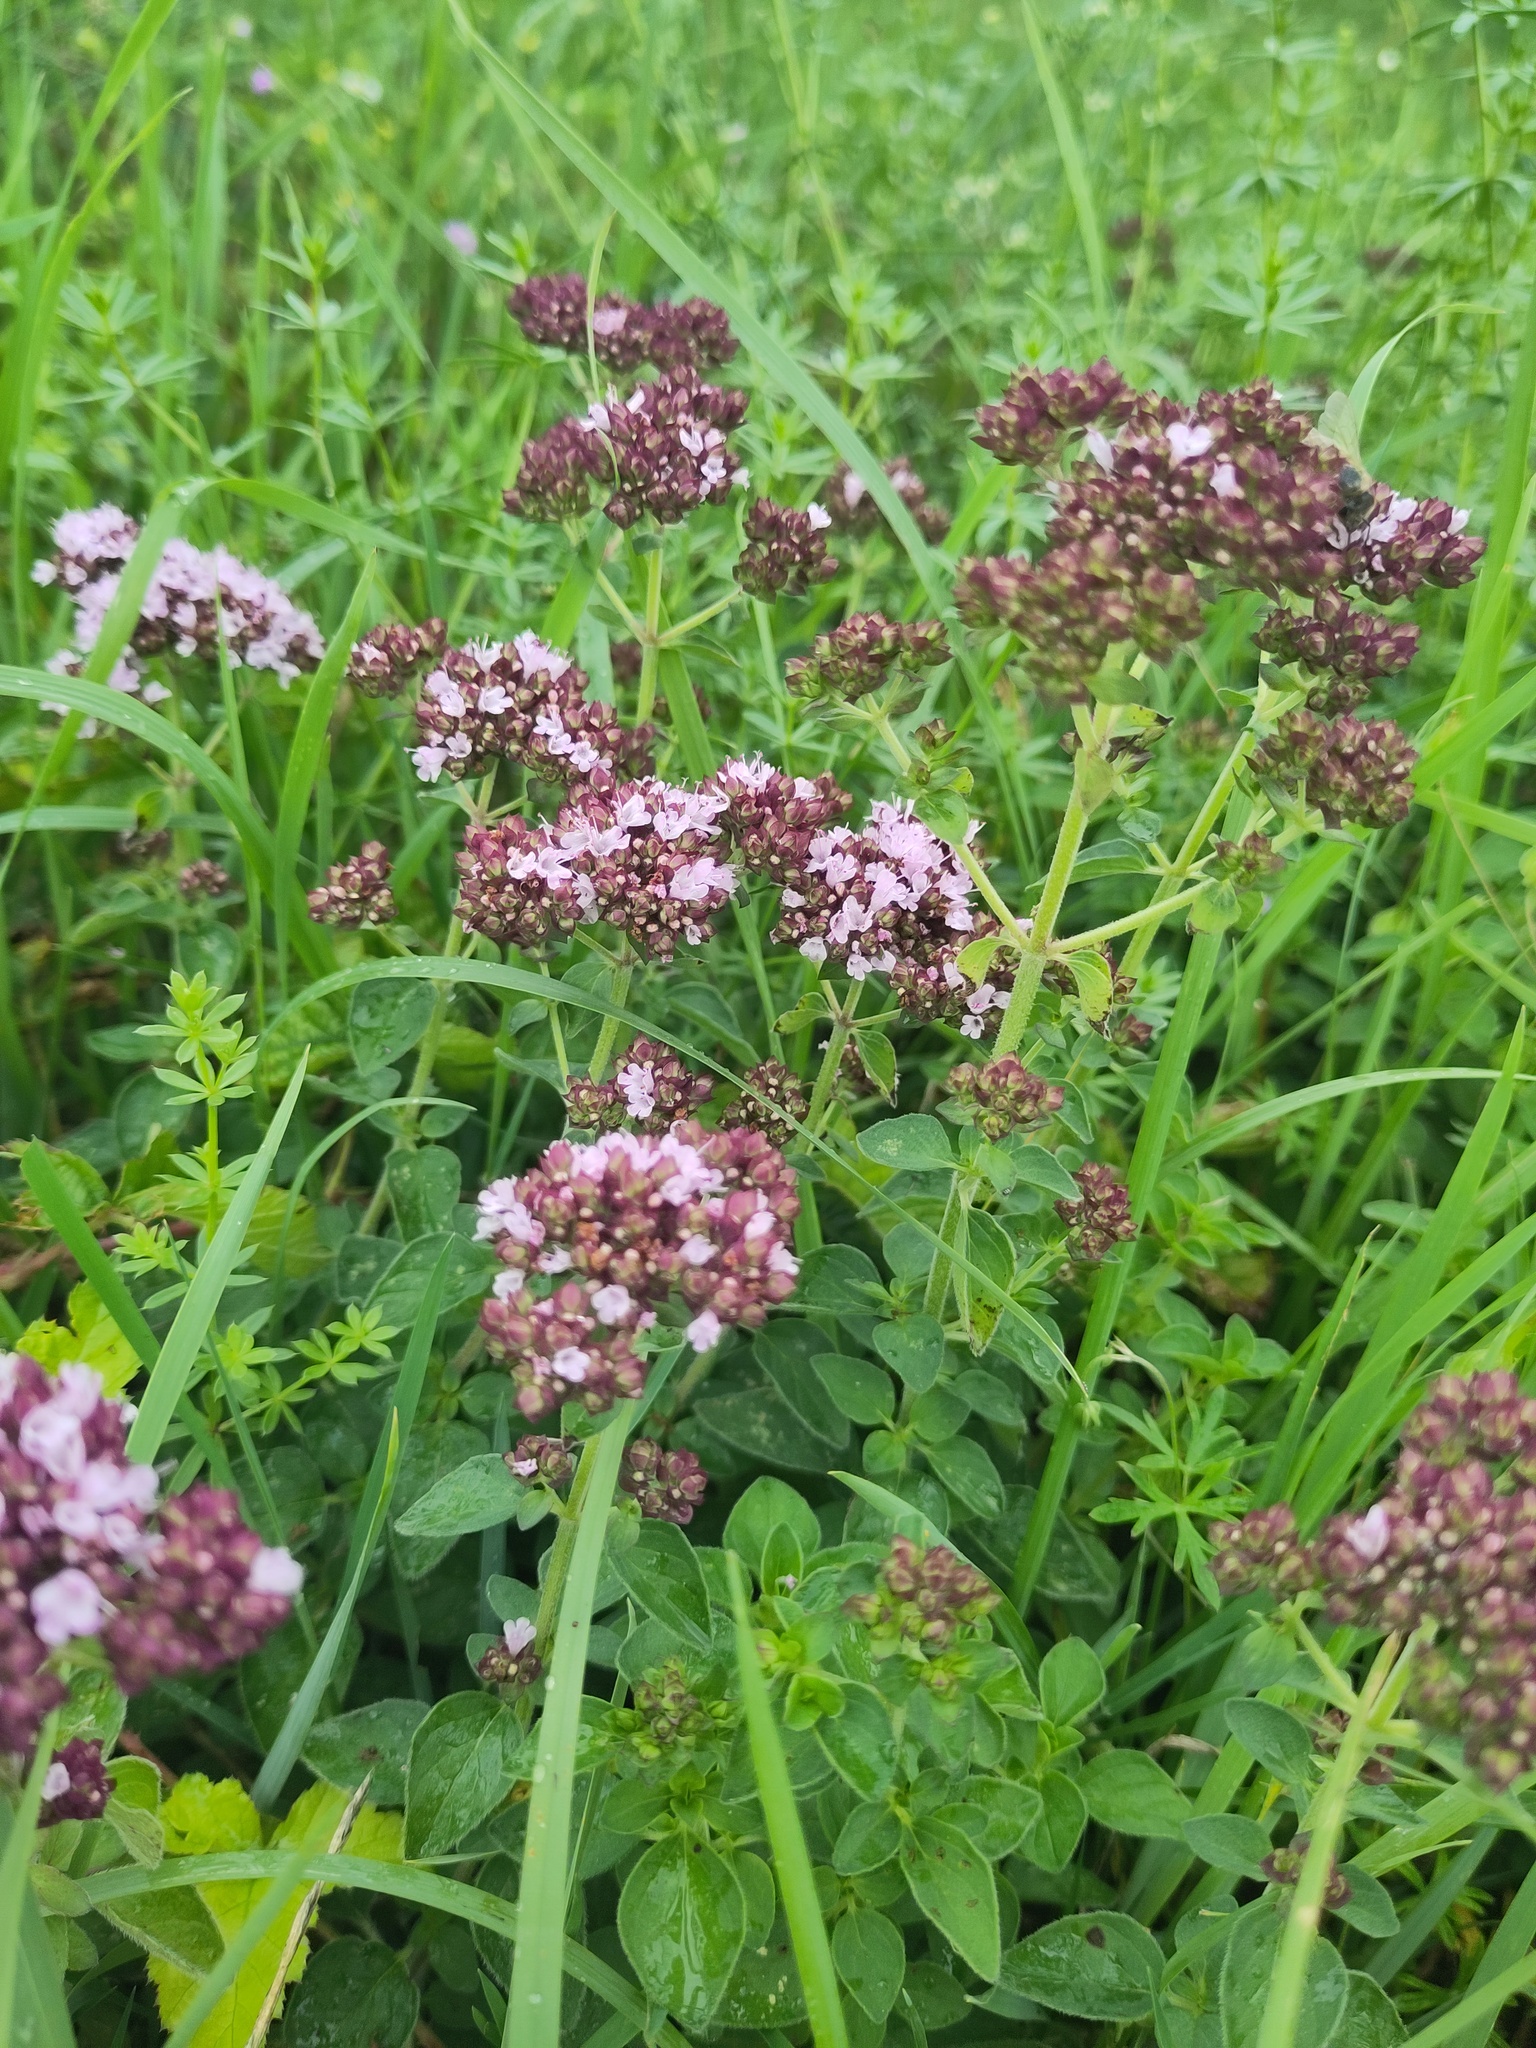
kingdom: Plantae
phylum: Tracheophyta
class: Magnoliopsida
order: Lamiales
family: Lamiaceae
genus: Origanum
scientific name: Origanum vulgare
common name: Wild marjoram
